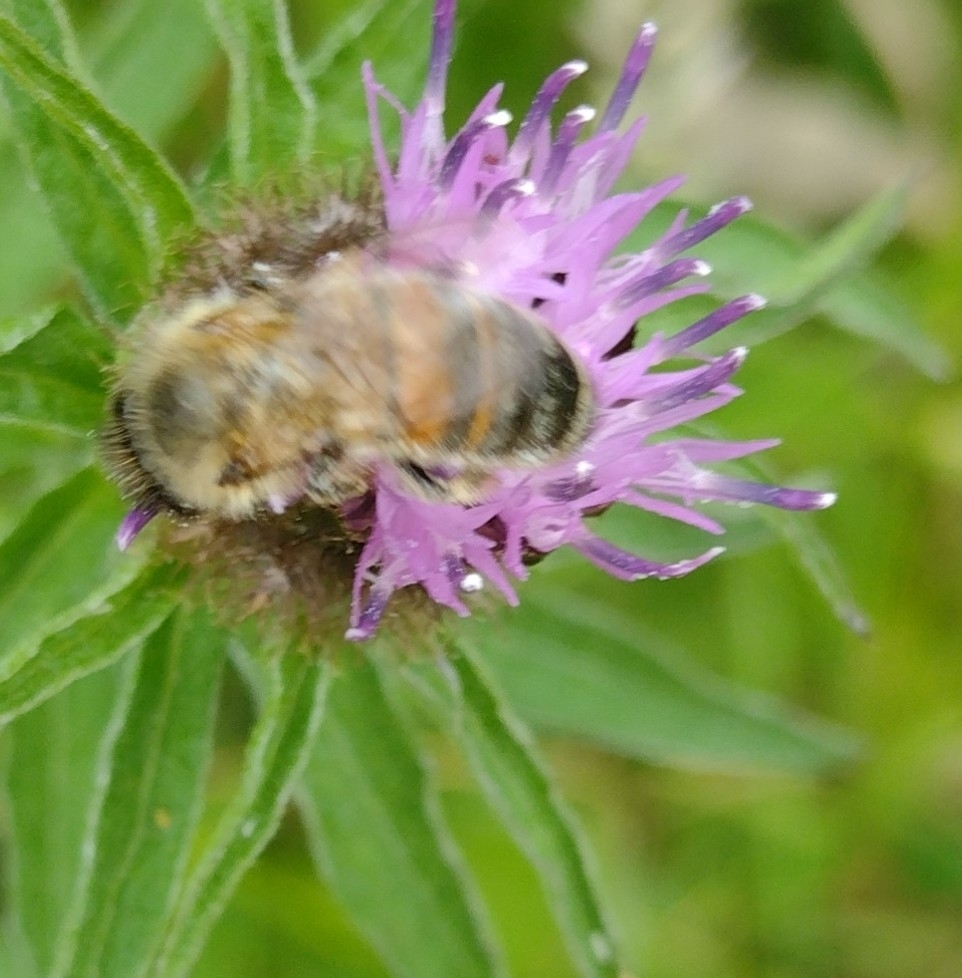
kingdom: Animalia
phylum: Arthropoda
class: Insecta
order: Hymenoptera
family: Apidae
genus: Apis
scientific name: Apis mellifera
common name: Honey bee
